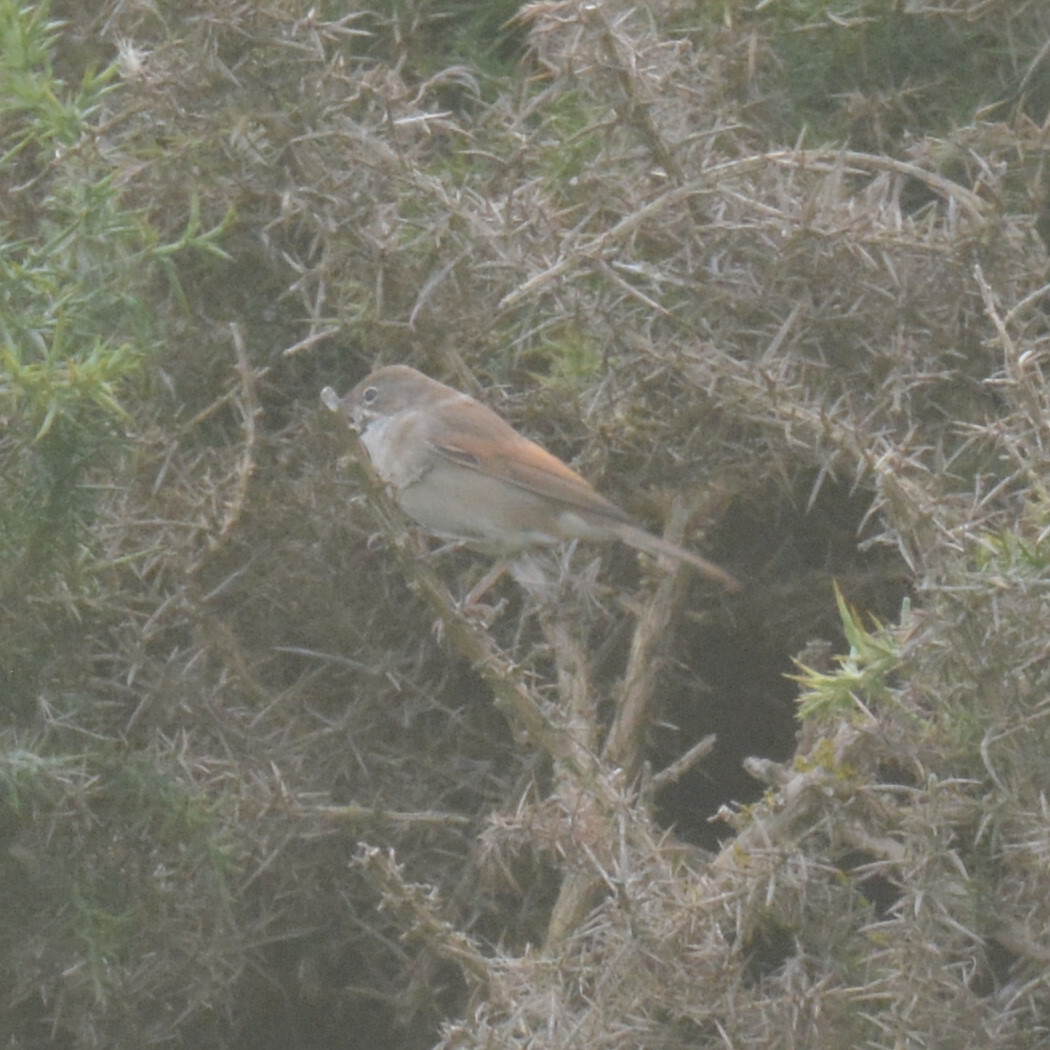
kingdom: Animalia
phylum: Chordata
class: Aves
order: Passeriformes
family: Sylviidae
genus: Sylvia
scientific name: Sylvia communis
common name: Common whitethroat
